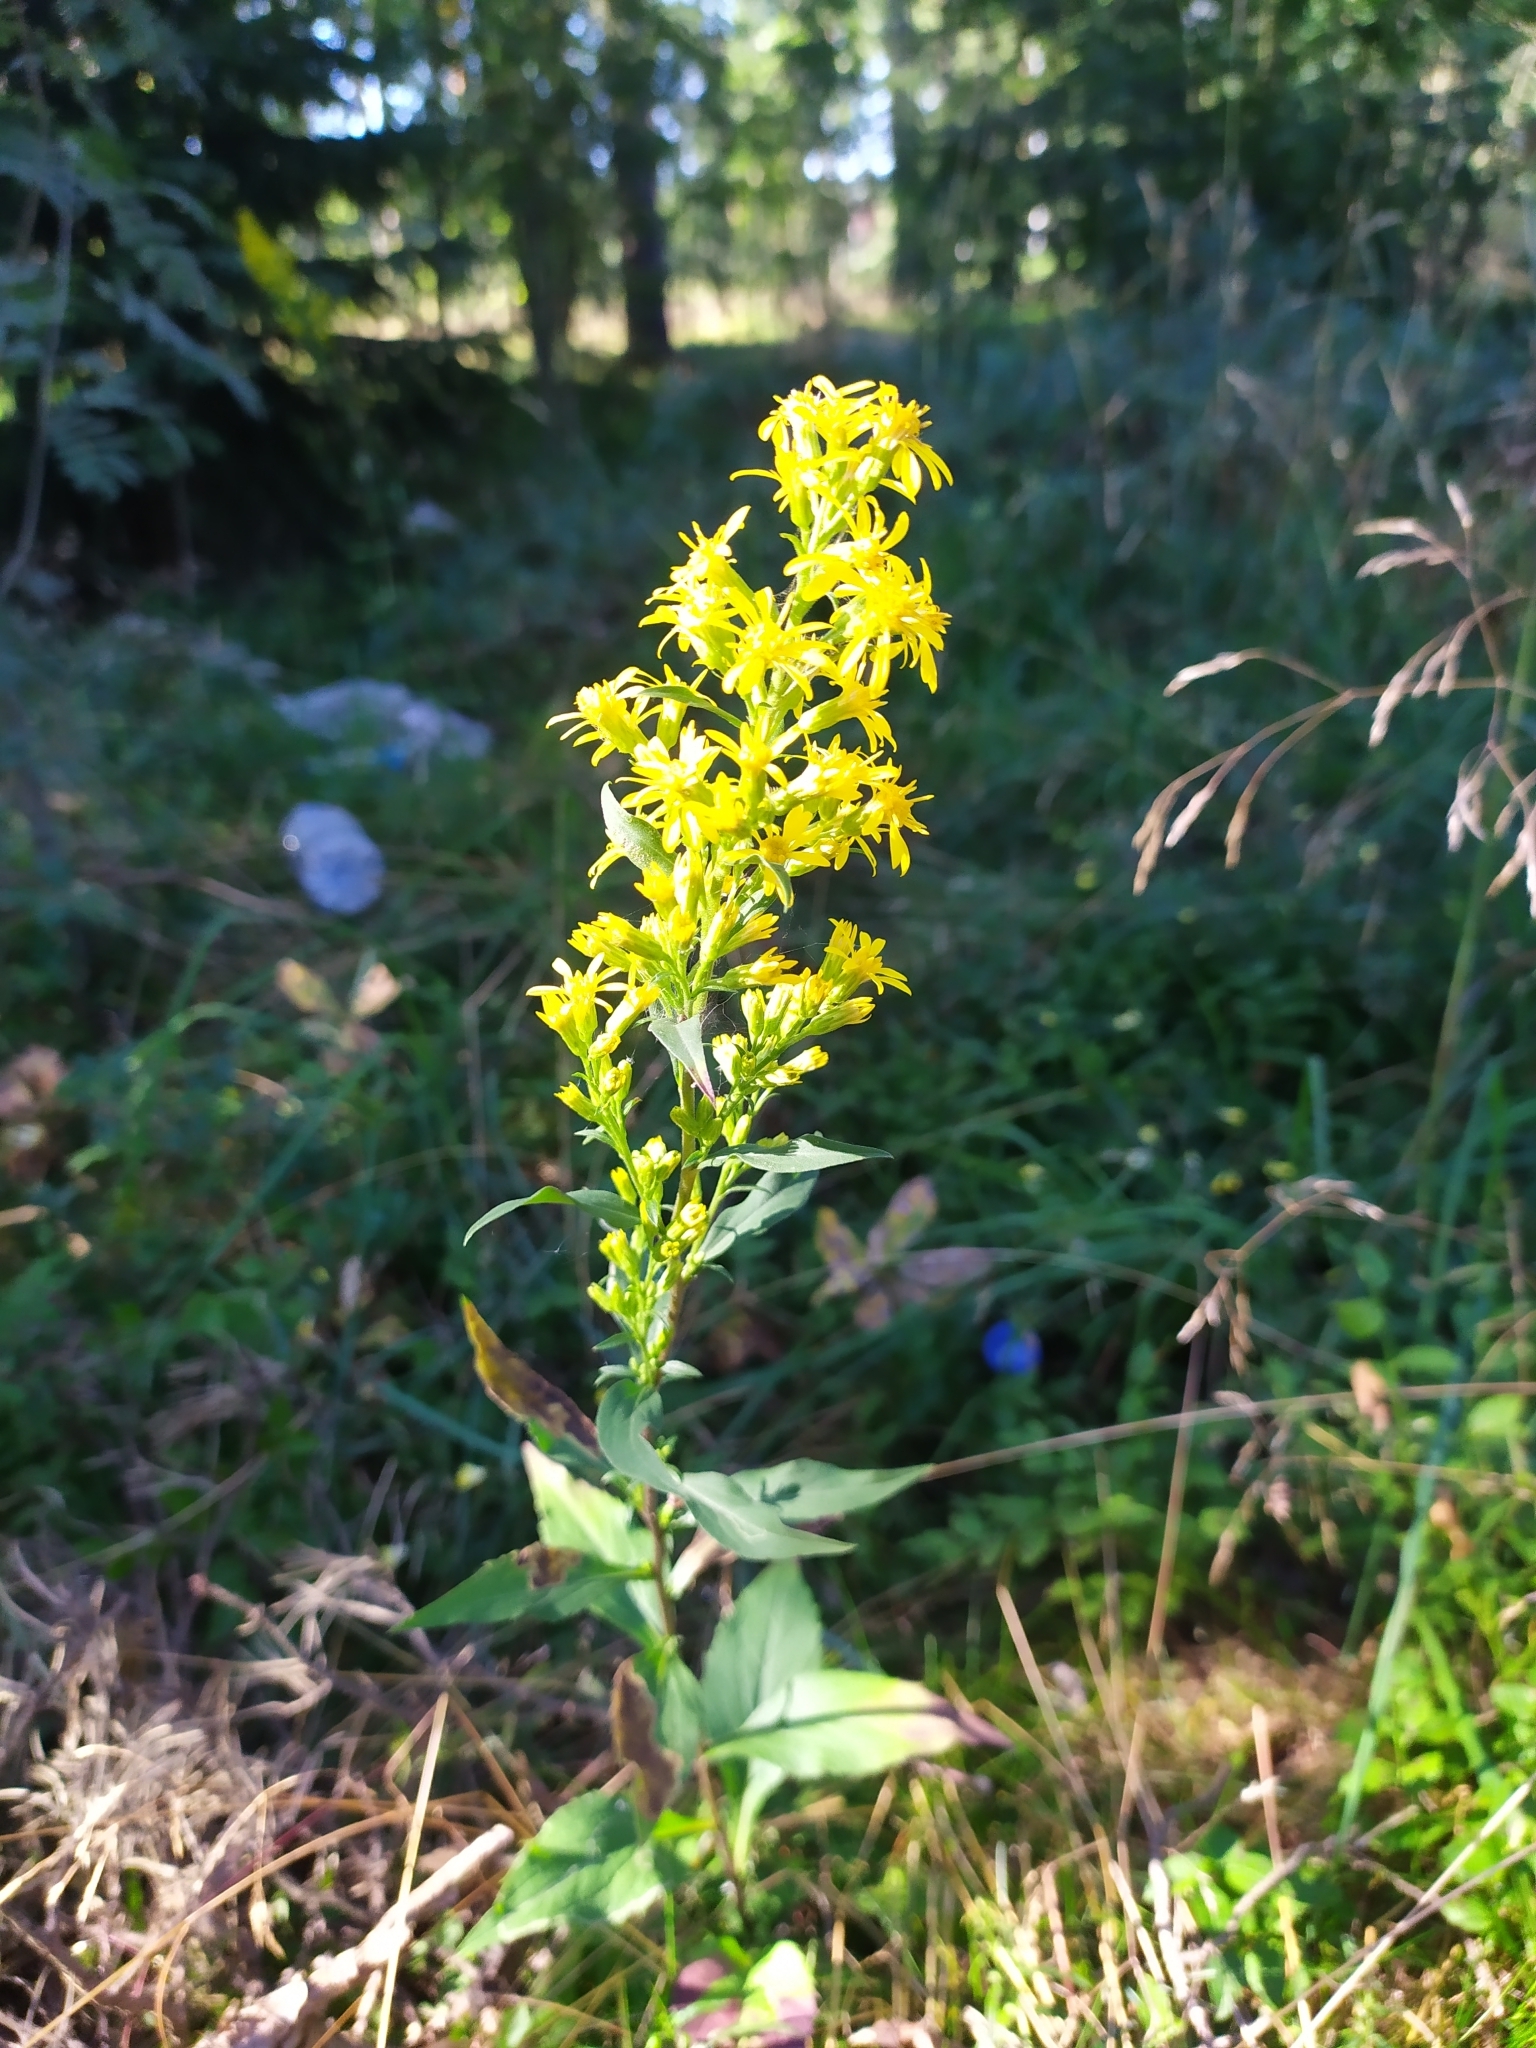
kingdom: Plantae
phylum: Tracheophyta
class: Magnoliopsida
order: Asterales
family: Asteraceae
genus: Solidago
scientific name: Solidago virgaurea
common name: Goldenrod
